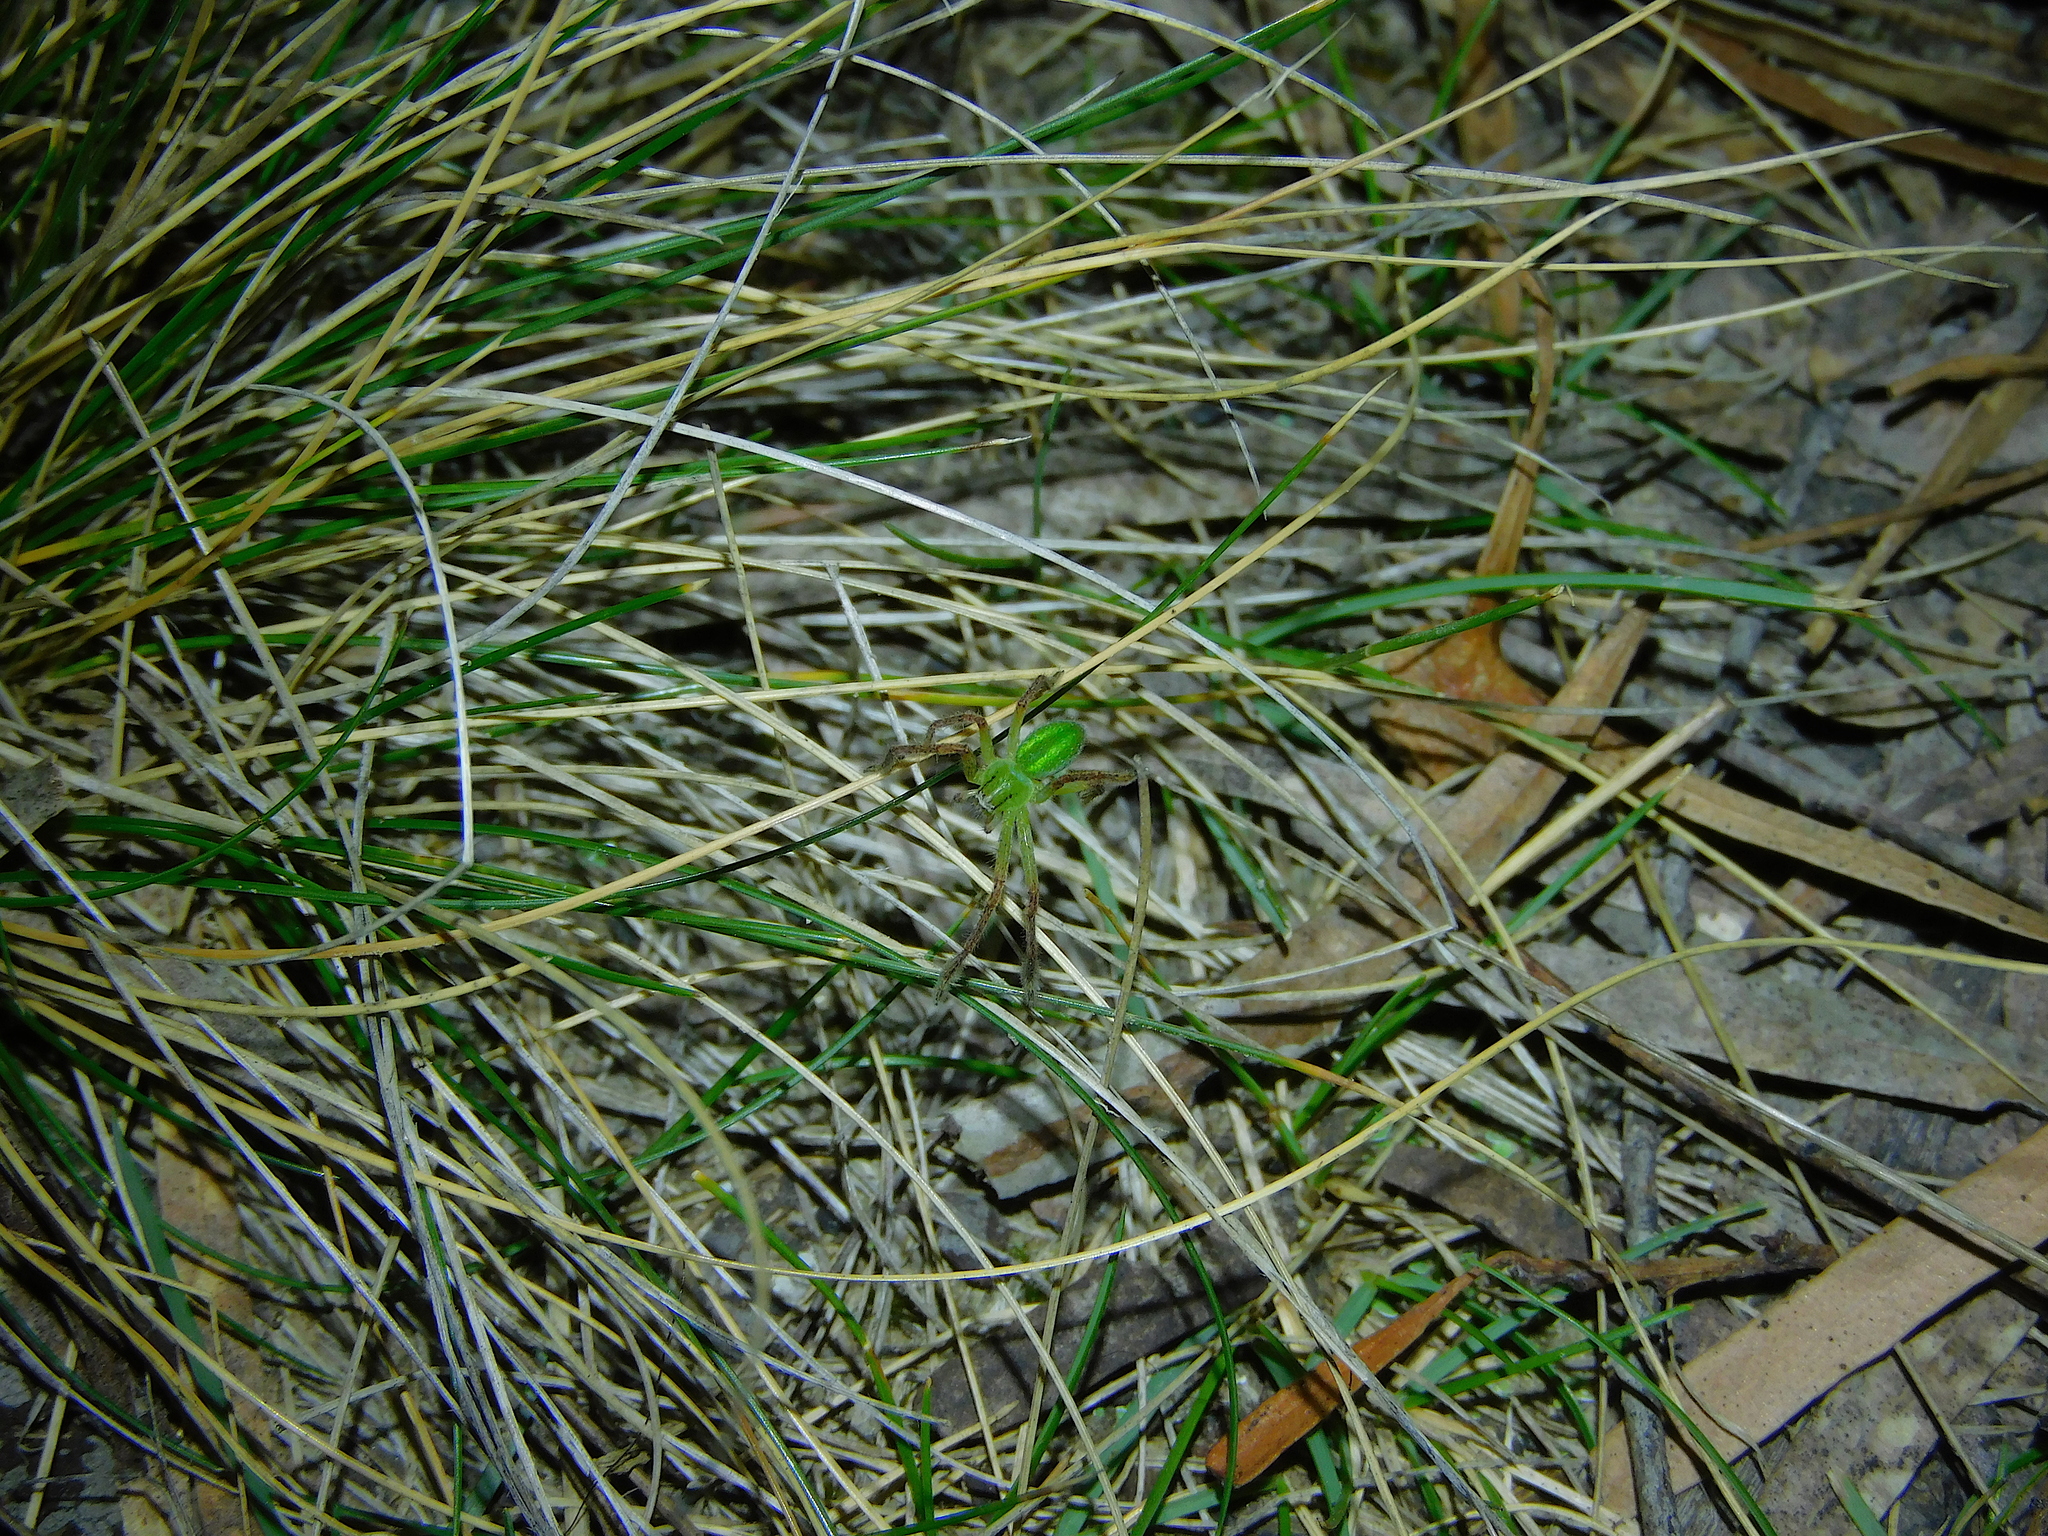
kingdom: Animalia
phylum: Arthropoda
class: Arachnida
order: Araneae
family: Sparassidae
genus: Neosparassus
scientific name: Neosparassus patellatus
